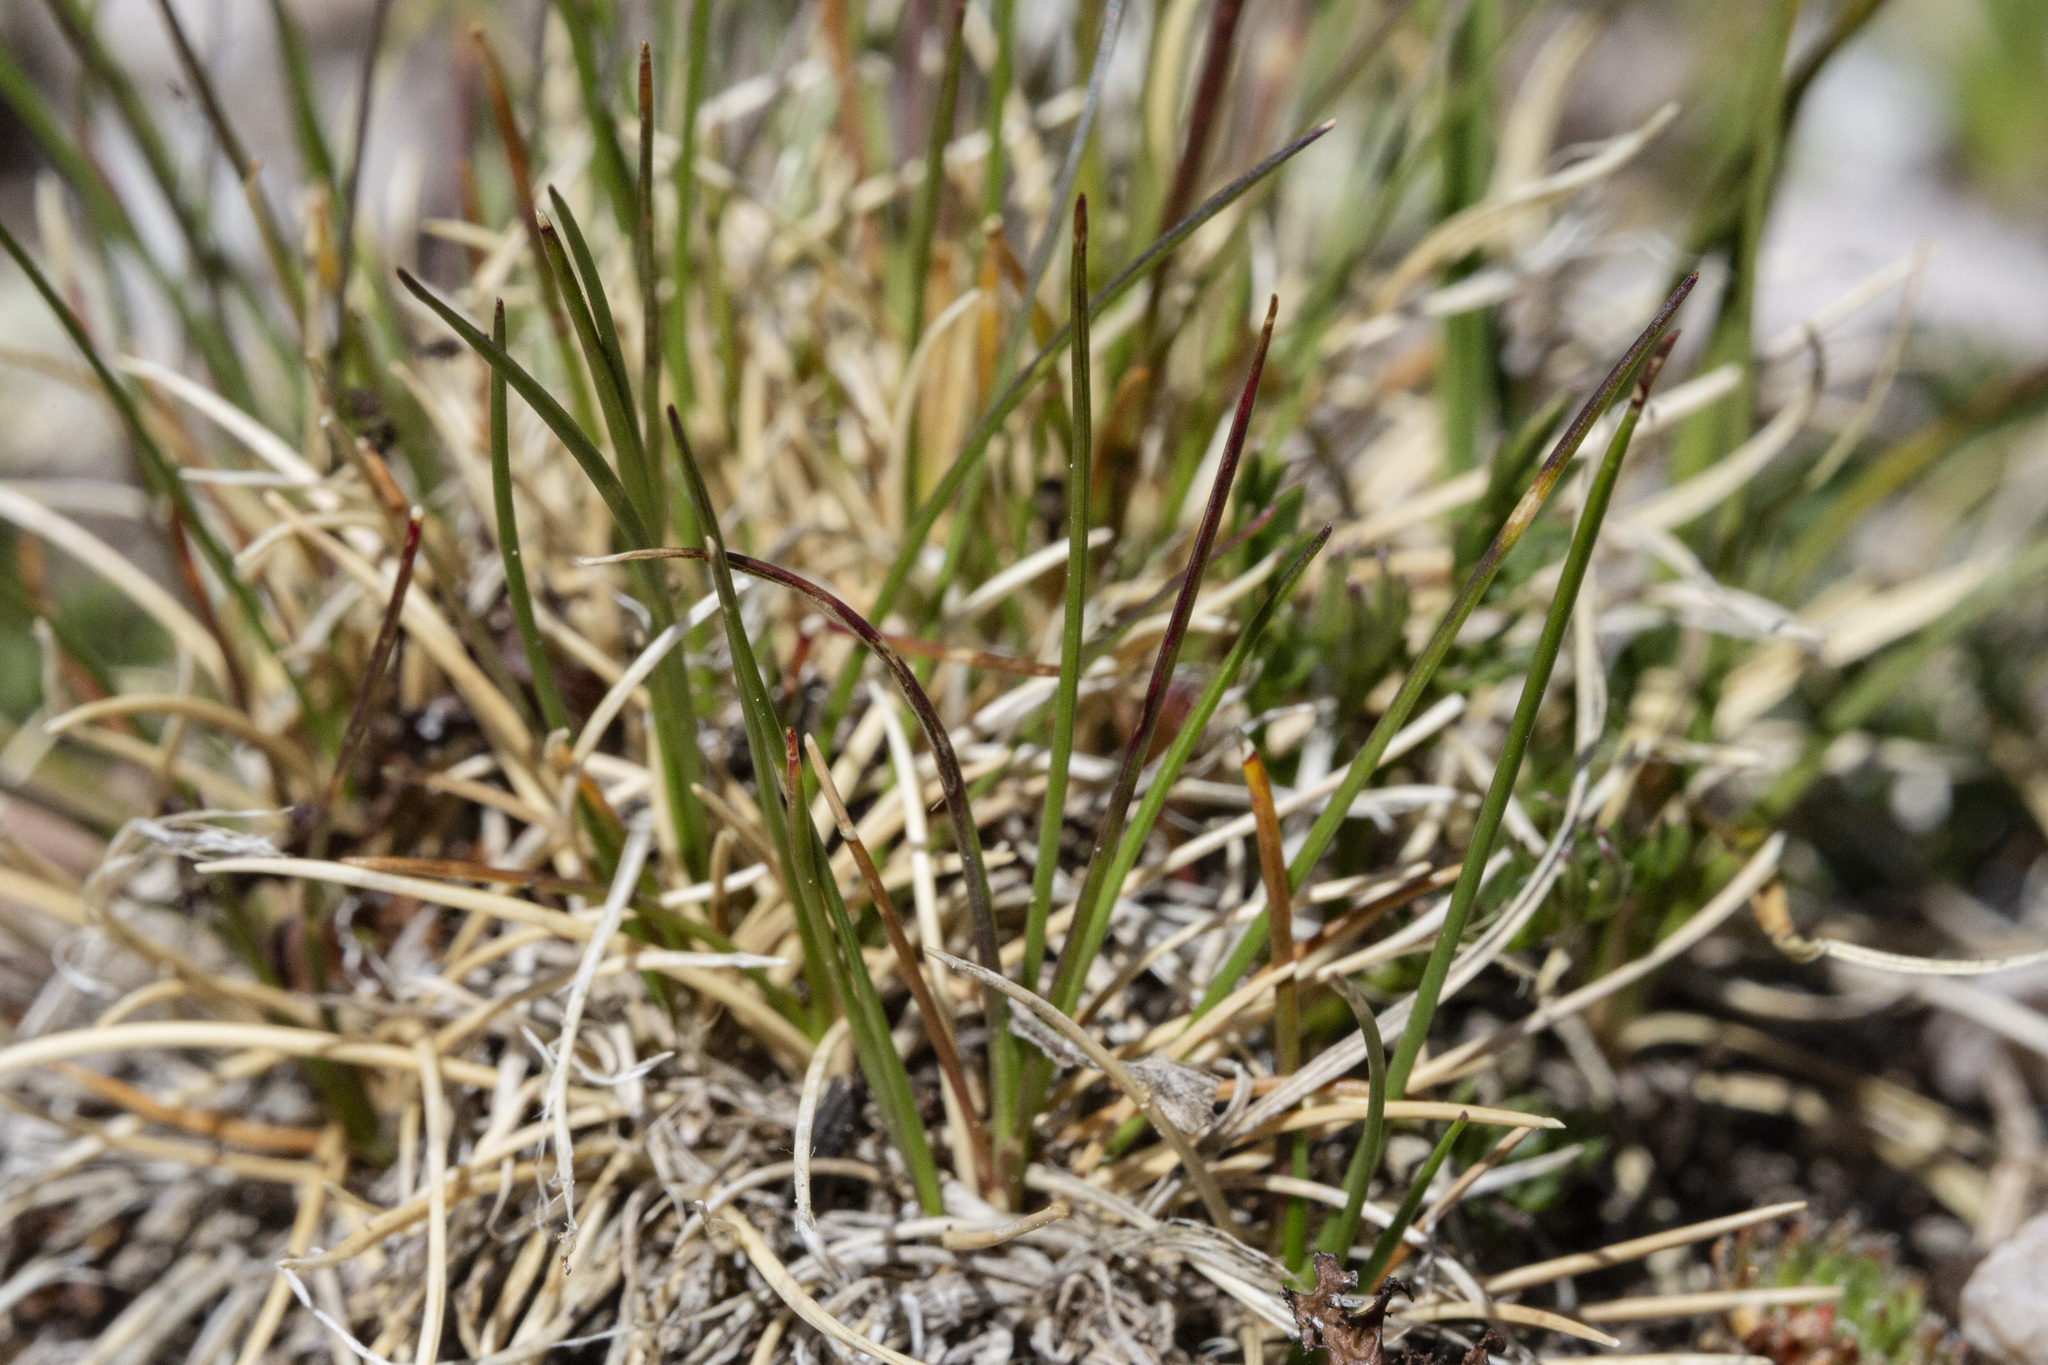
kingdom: Plantae
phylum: Tracheophyta
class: Liliopsida
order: Poales
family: Poaceae
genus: Festuca
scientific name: Festuca brachyphylla
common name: Alpine fescue
